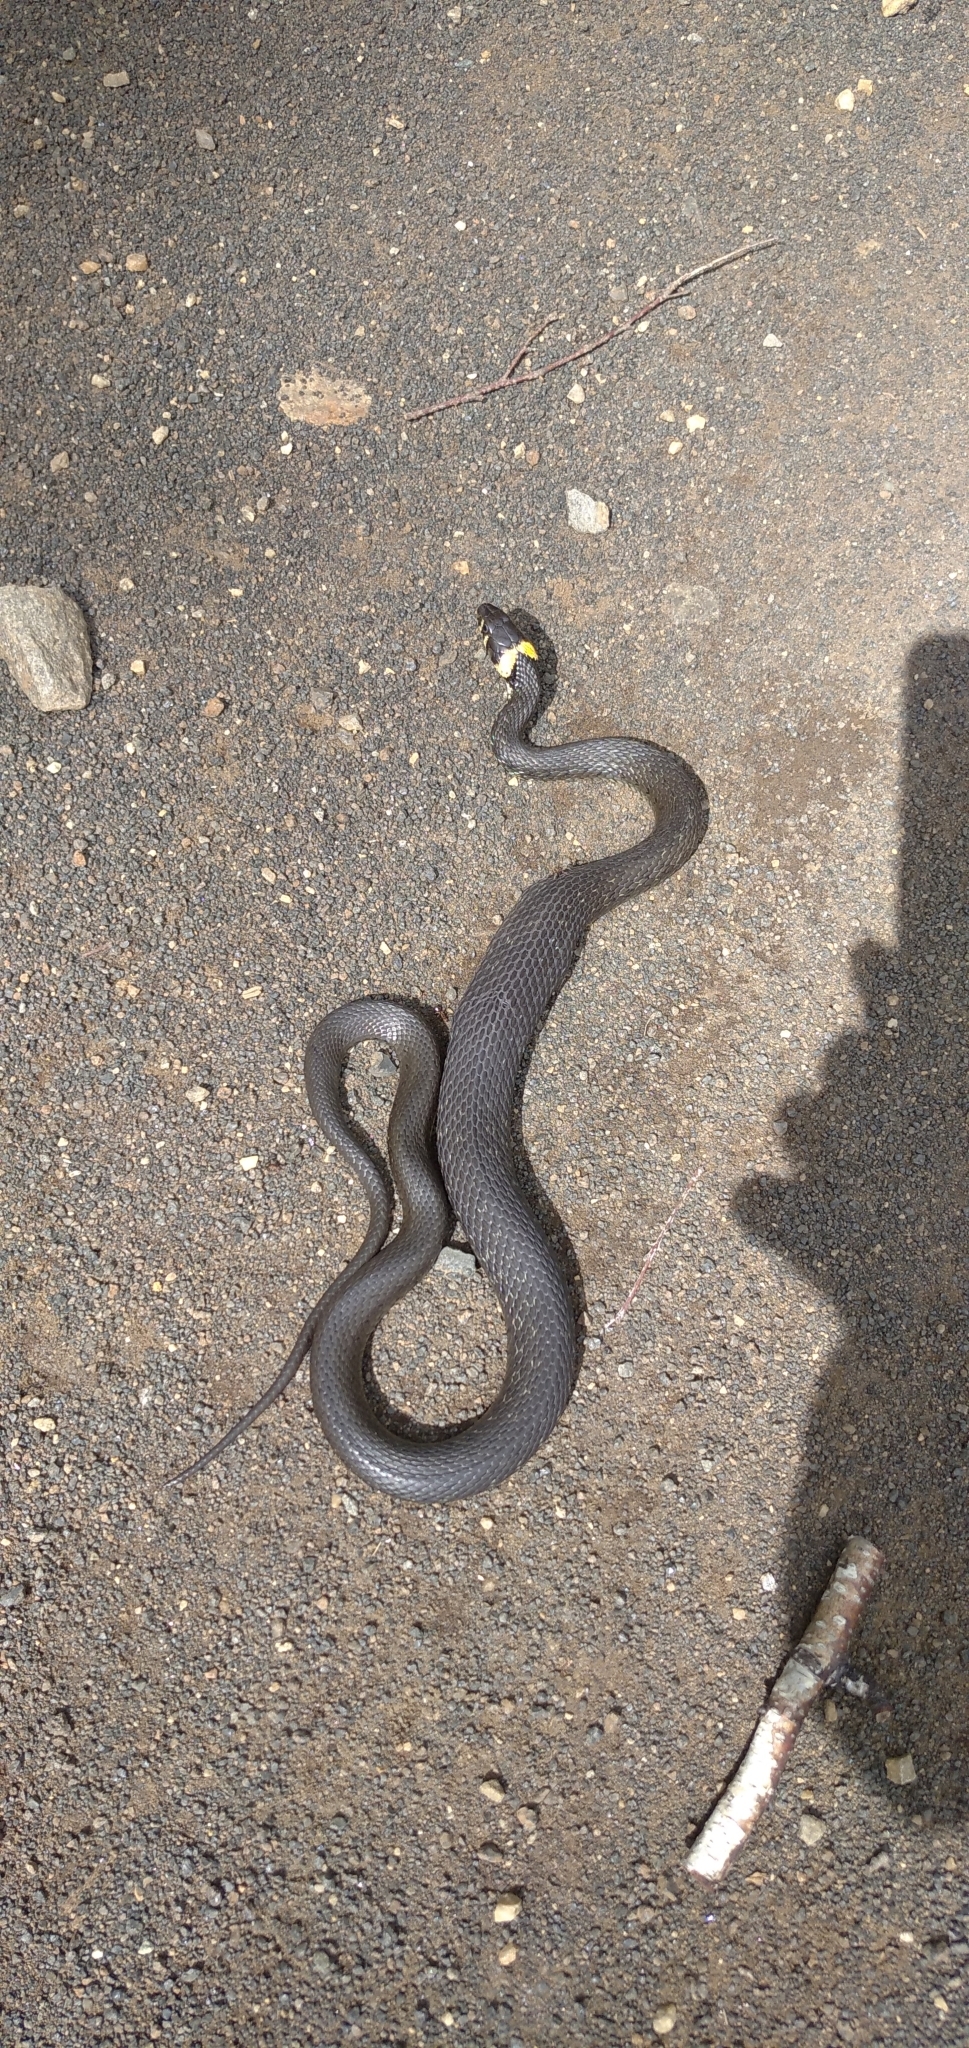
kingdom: Animalia
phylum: Chordata
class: Squamata
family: Colubridae
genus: Natrix
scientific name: Natrix natrix
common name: Grass snake
